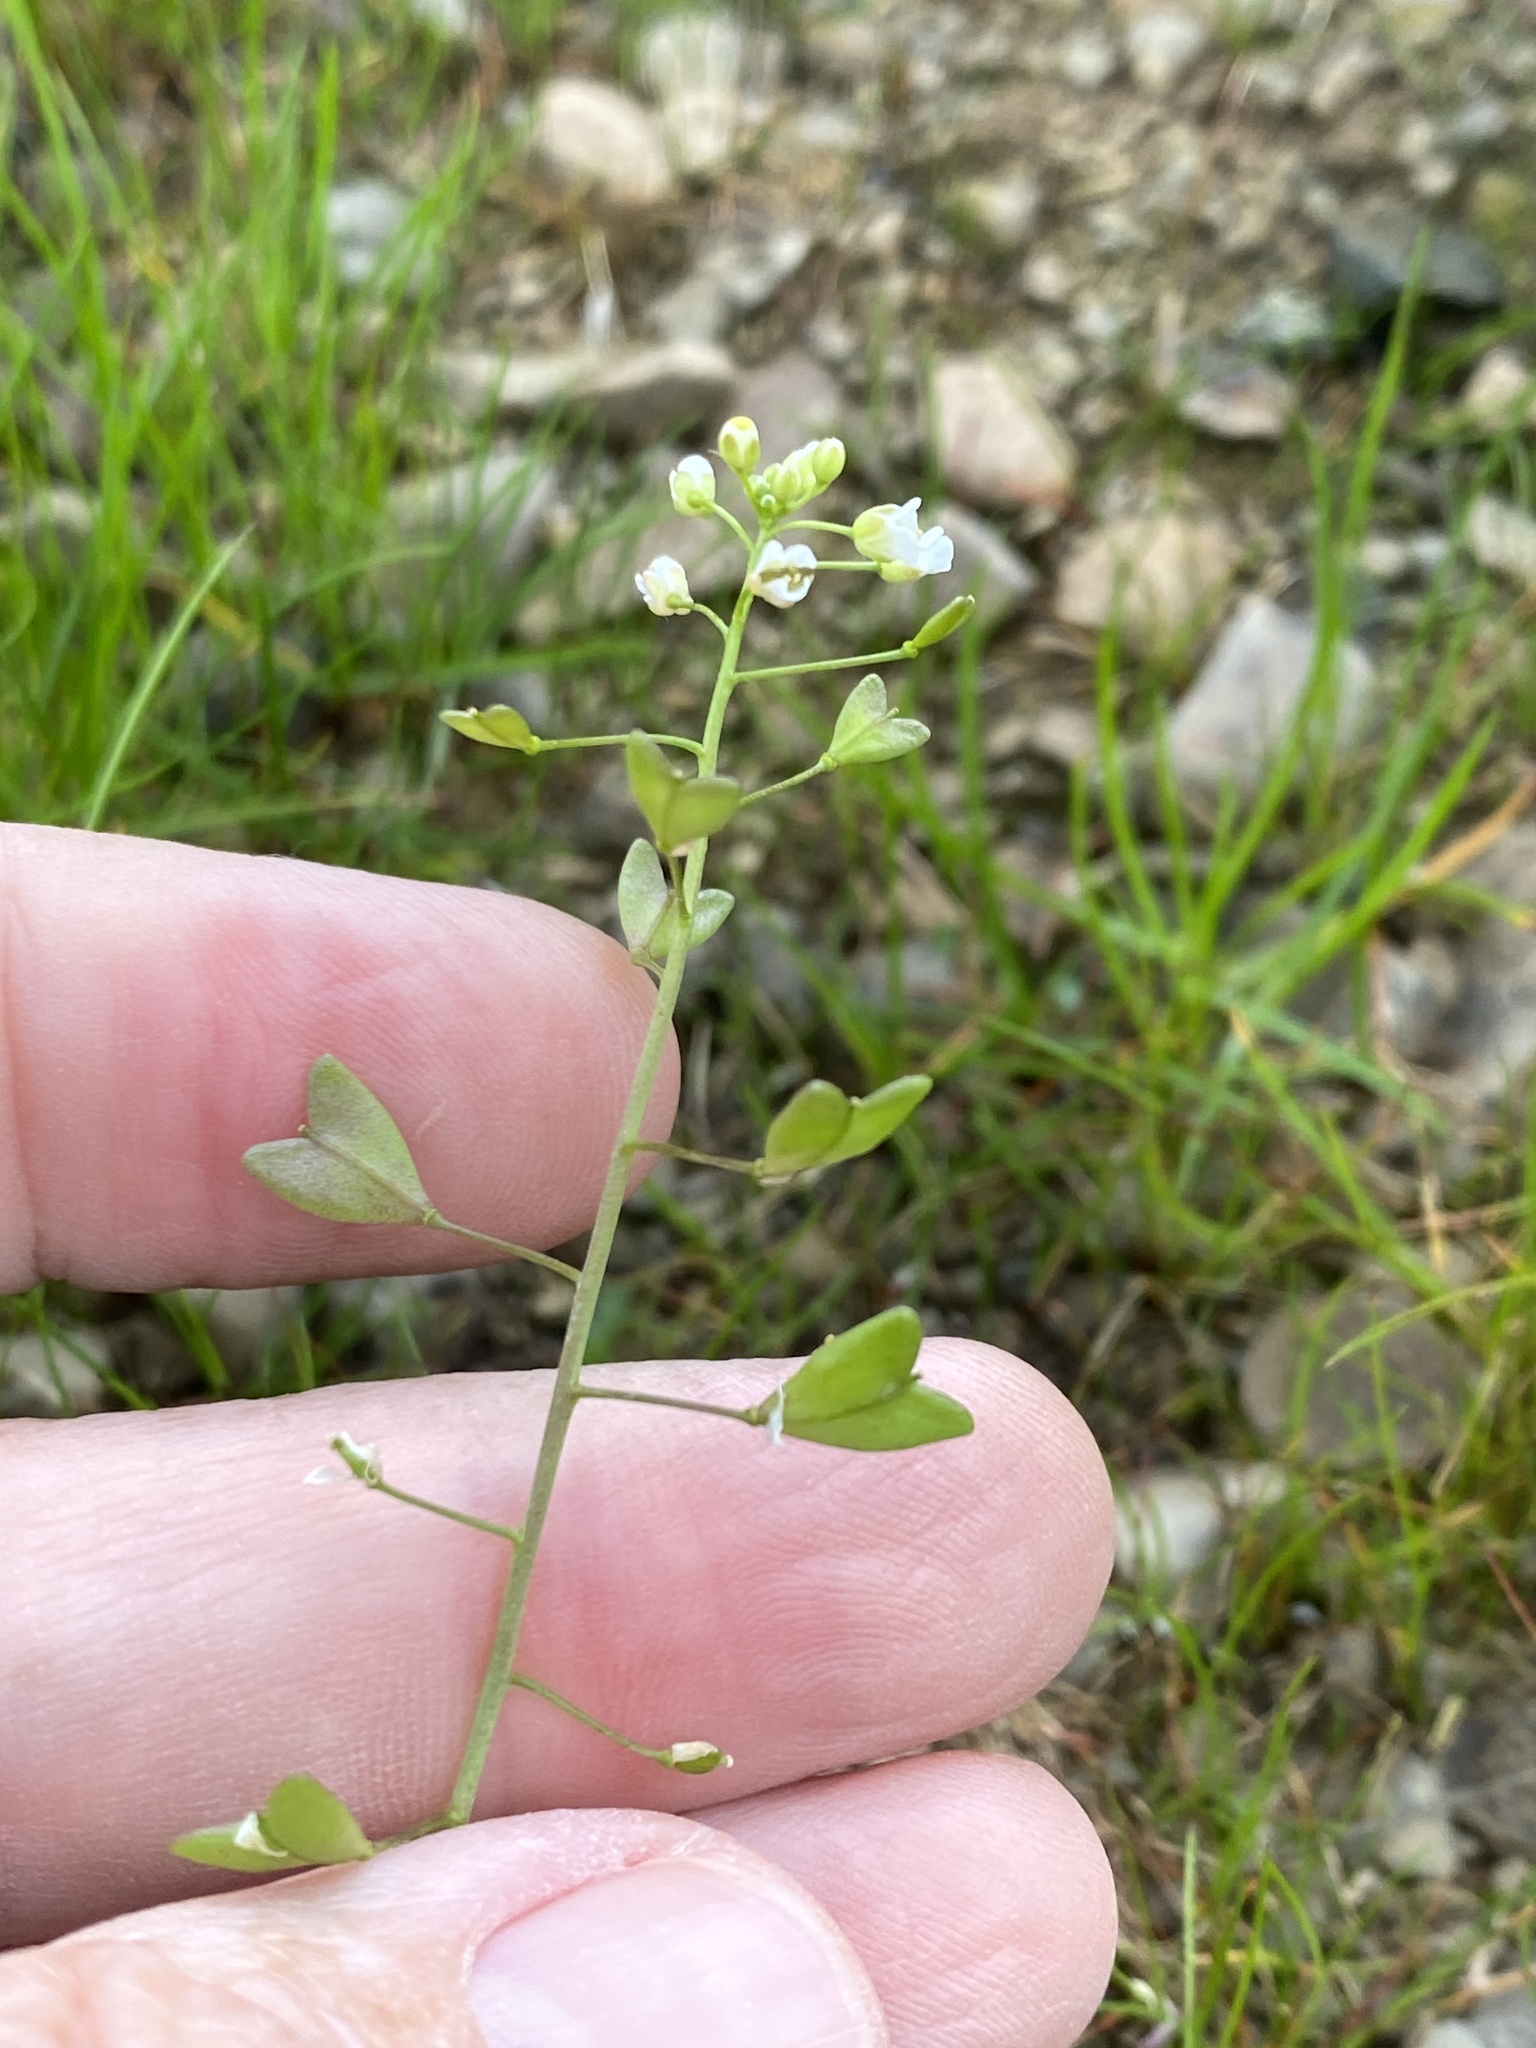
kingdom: Plantae
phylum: Tracheophyta
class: Magnoliopsida
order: Brassicales
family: Brassicaceae
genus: Capsella
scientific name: Capsella bursa-pastoris
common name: Shepherd's purse
